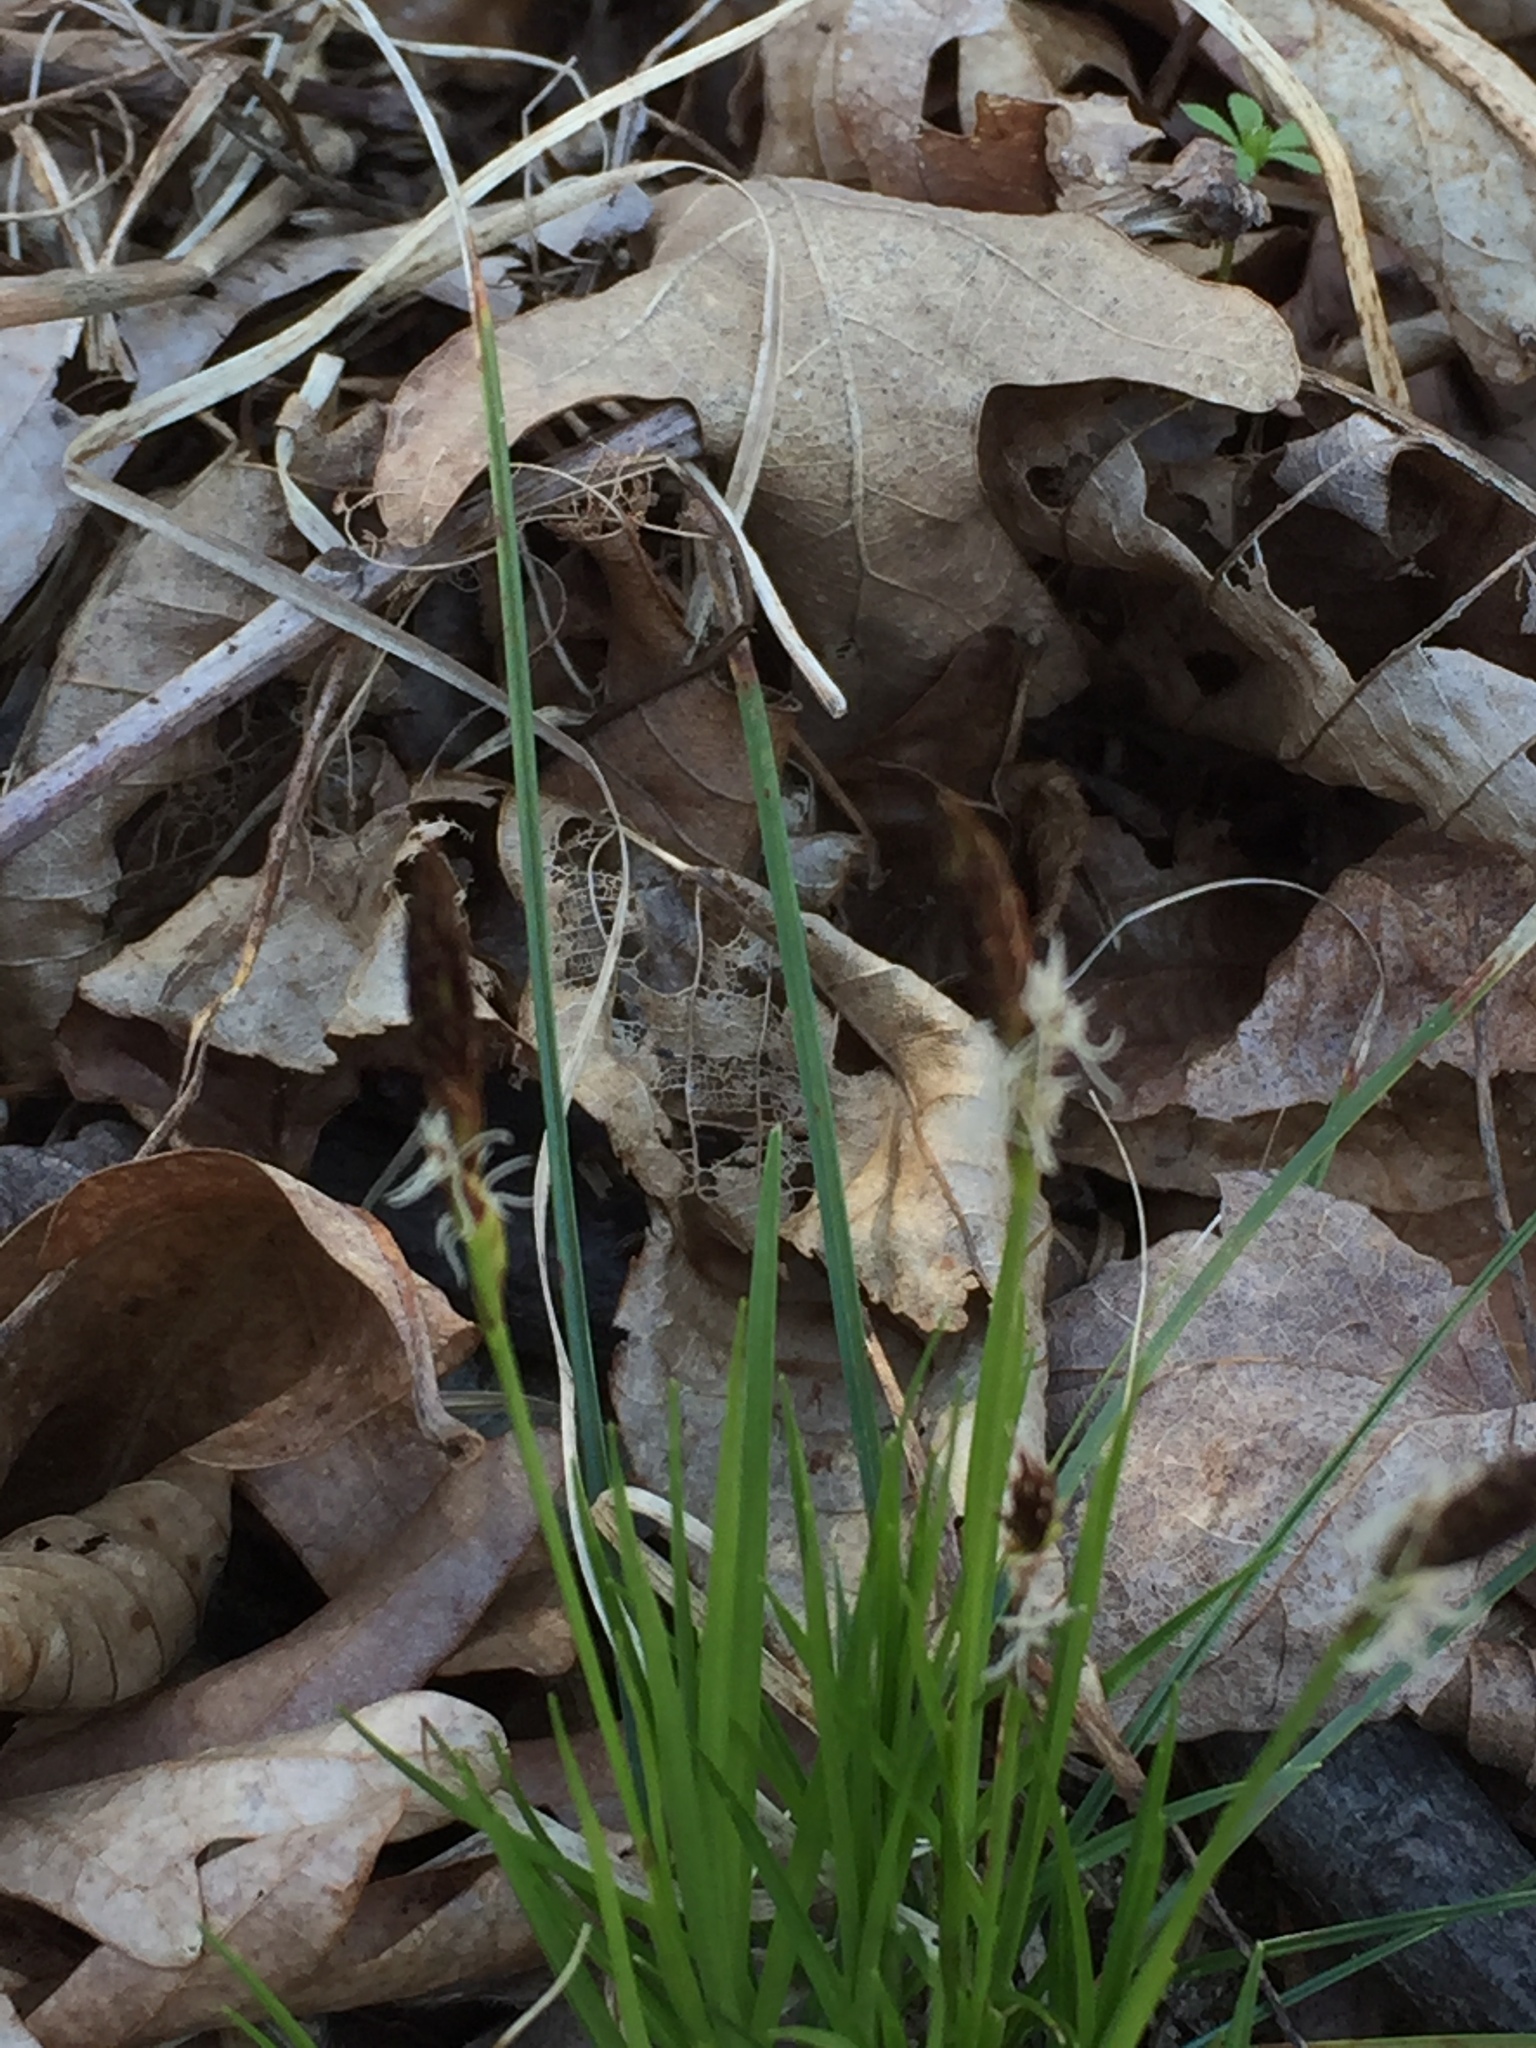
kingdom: Plantae
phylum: Tracheophyta
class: Liliopsida
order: Poales
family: Cyperaceae
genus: Carex
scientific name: Carex pensylvanica
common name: Common oak sedge
